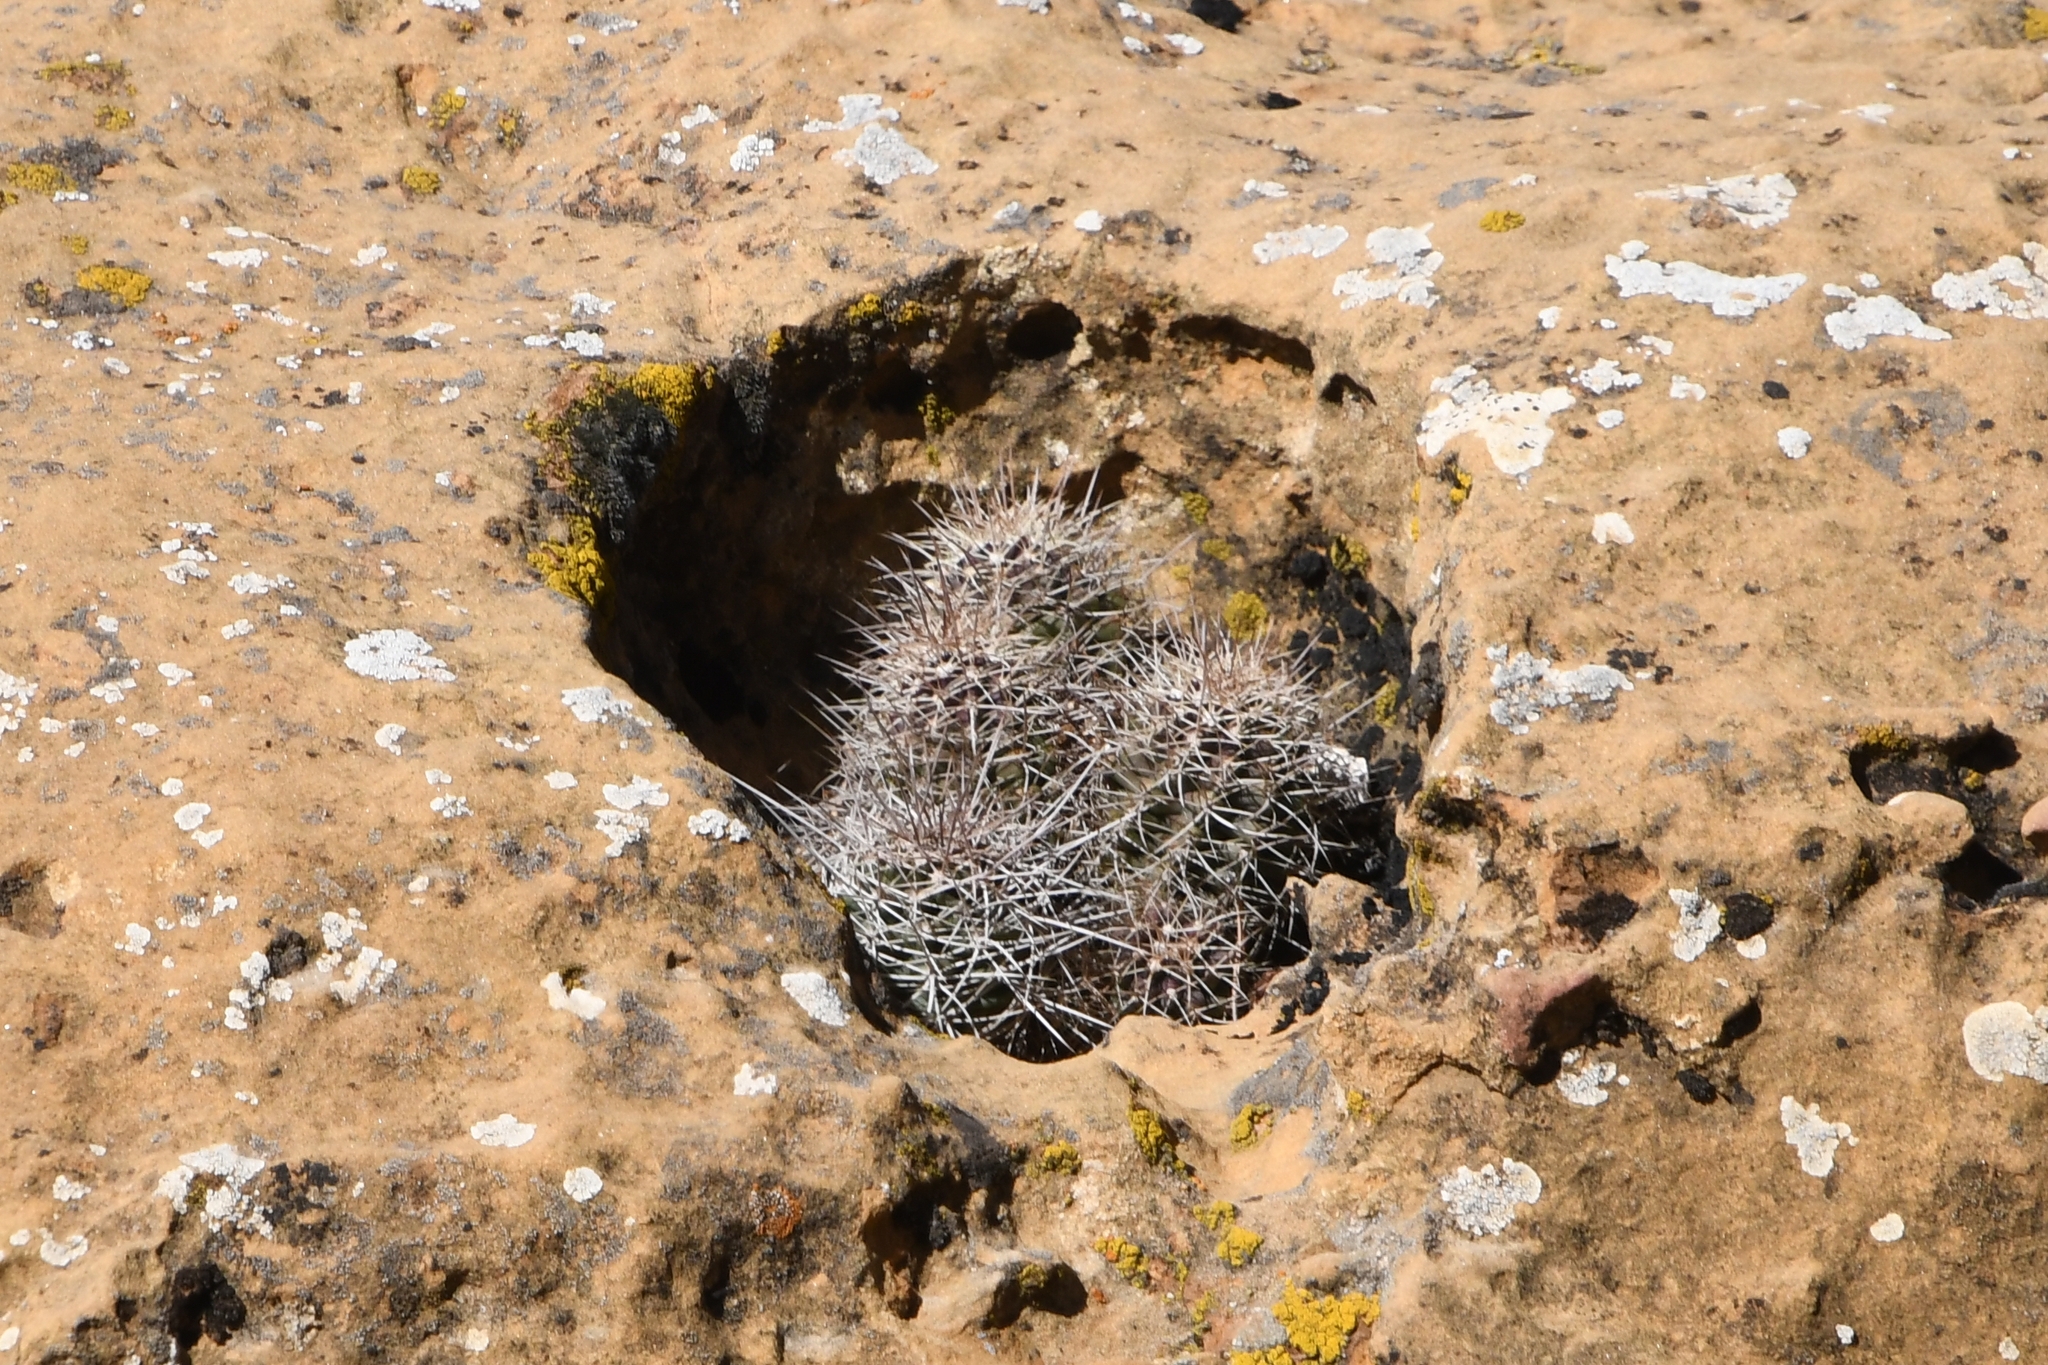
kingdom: Plantae
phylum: Tracheophyta
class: Magnoliopsida
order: Caryophyllales
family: Cactaceae
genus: Echinocereus
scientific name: Echinocereus triglochidiatus
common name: Claretcup hedgehog
